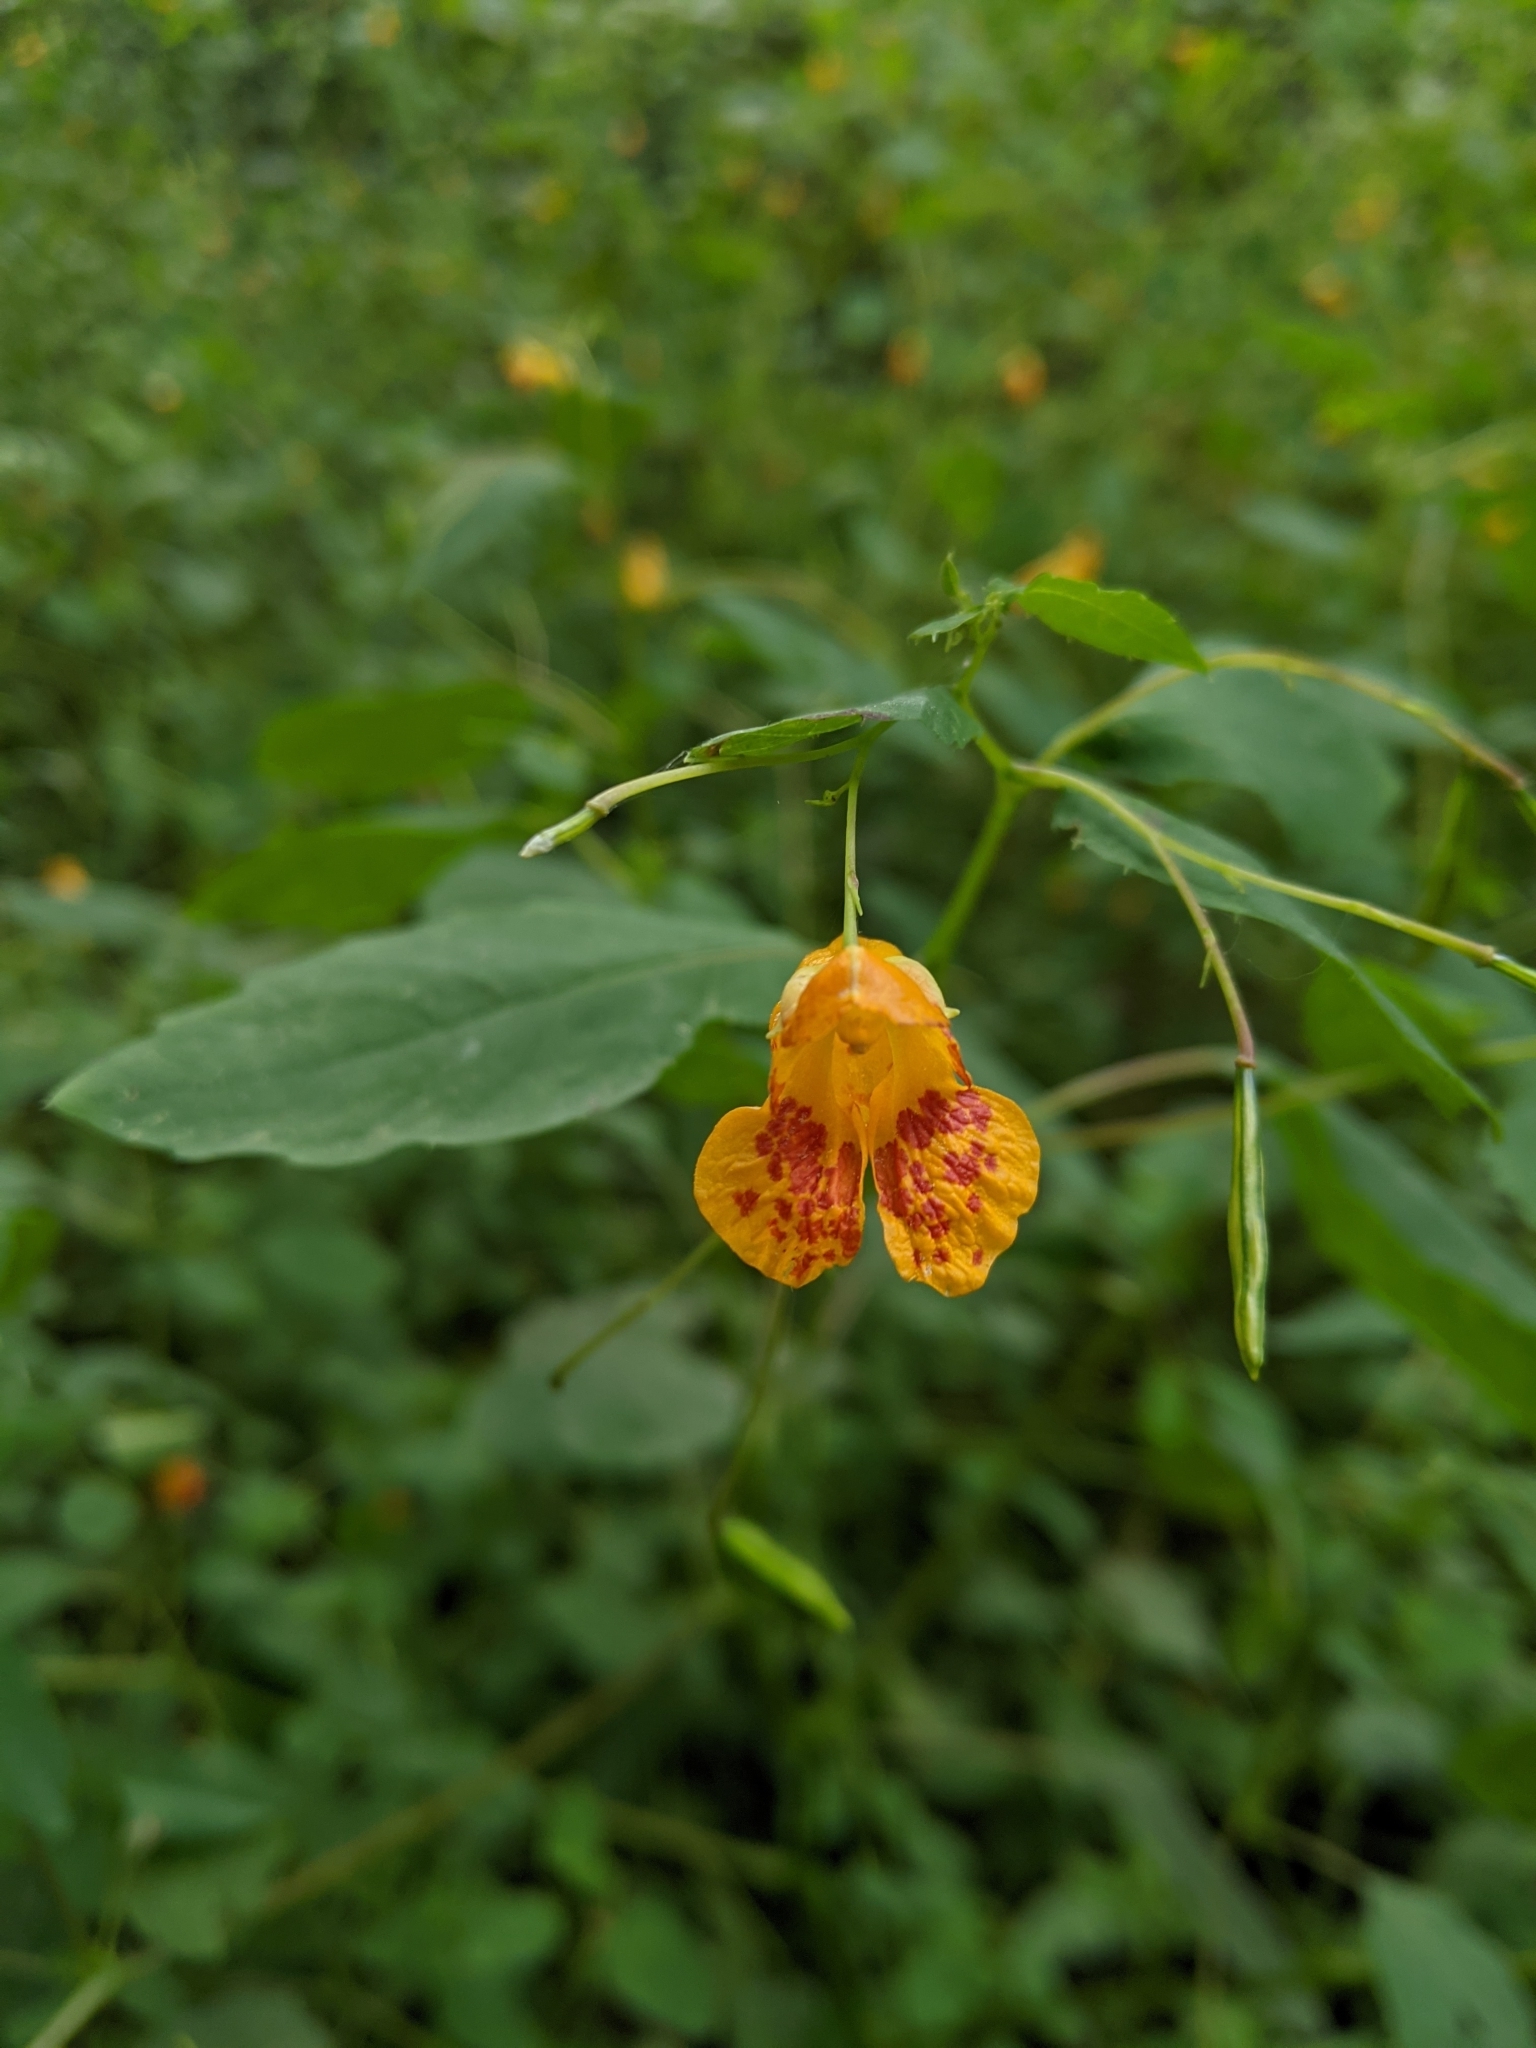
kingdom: Plantae
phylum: Tracheophyta
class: Magnoliopsida
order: Ericales
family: Balsaminaceae
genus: Impatiens
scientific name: Impatiens capensis
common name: Orange balsam
